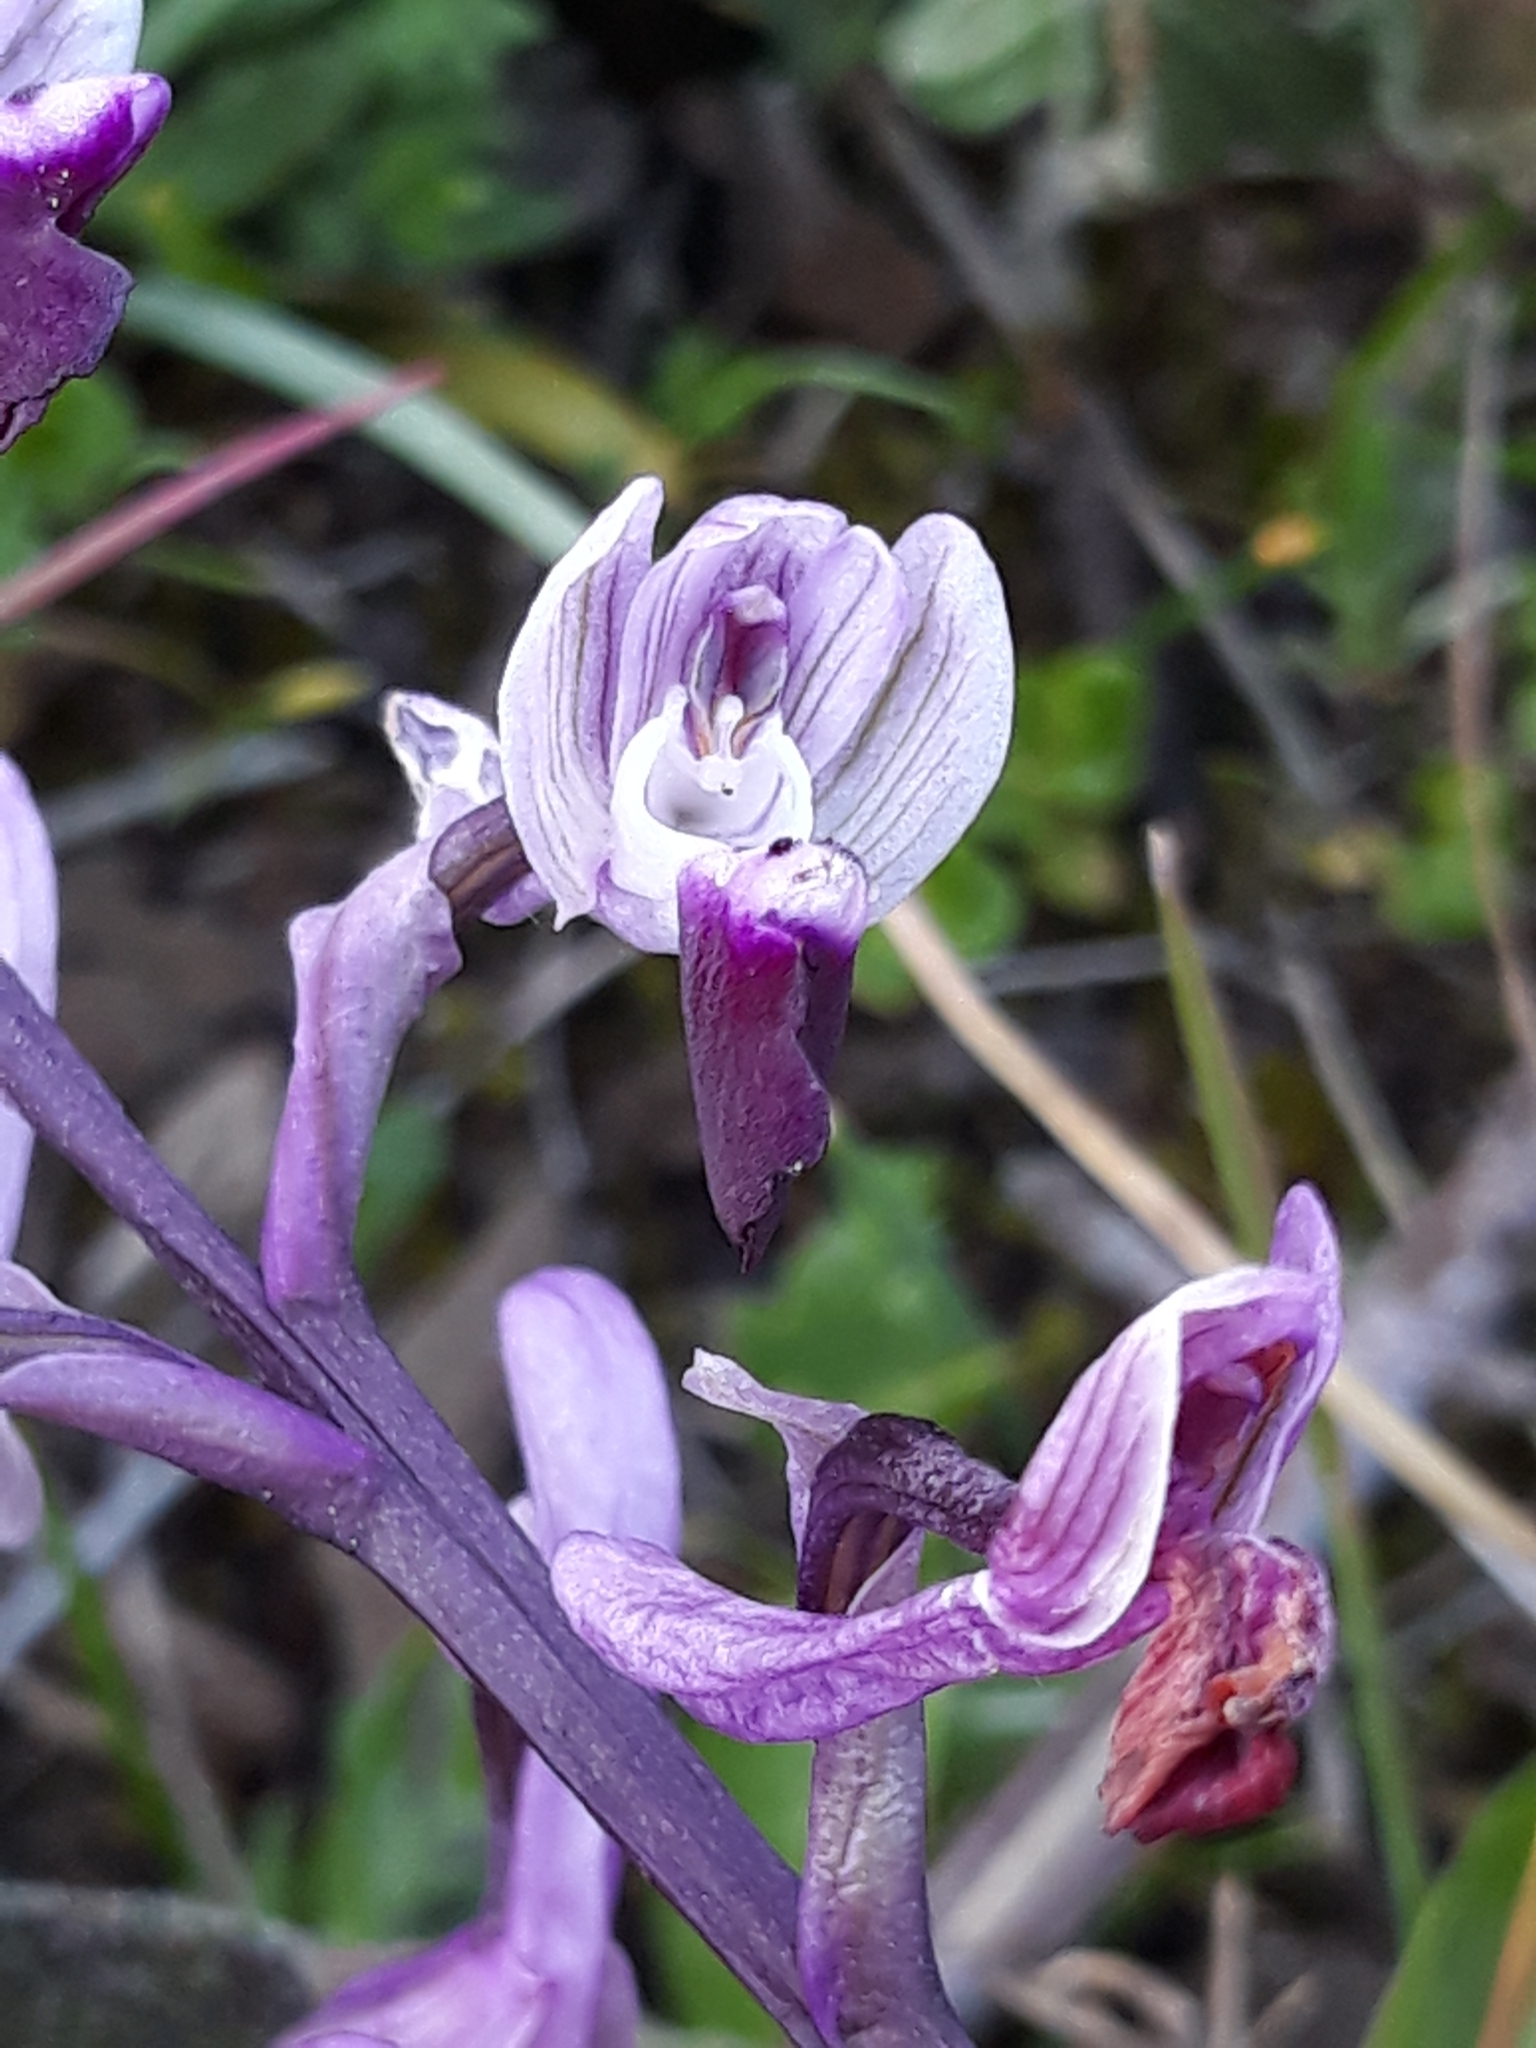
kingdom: Plantae
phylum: Tracheophyta
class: Liliopsida
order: Asparagales
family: Orchidaceae
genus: Anacamptis
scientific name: Anacamptis morio
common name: Green-winged orchid
